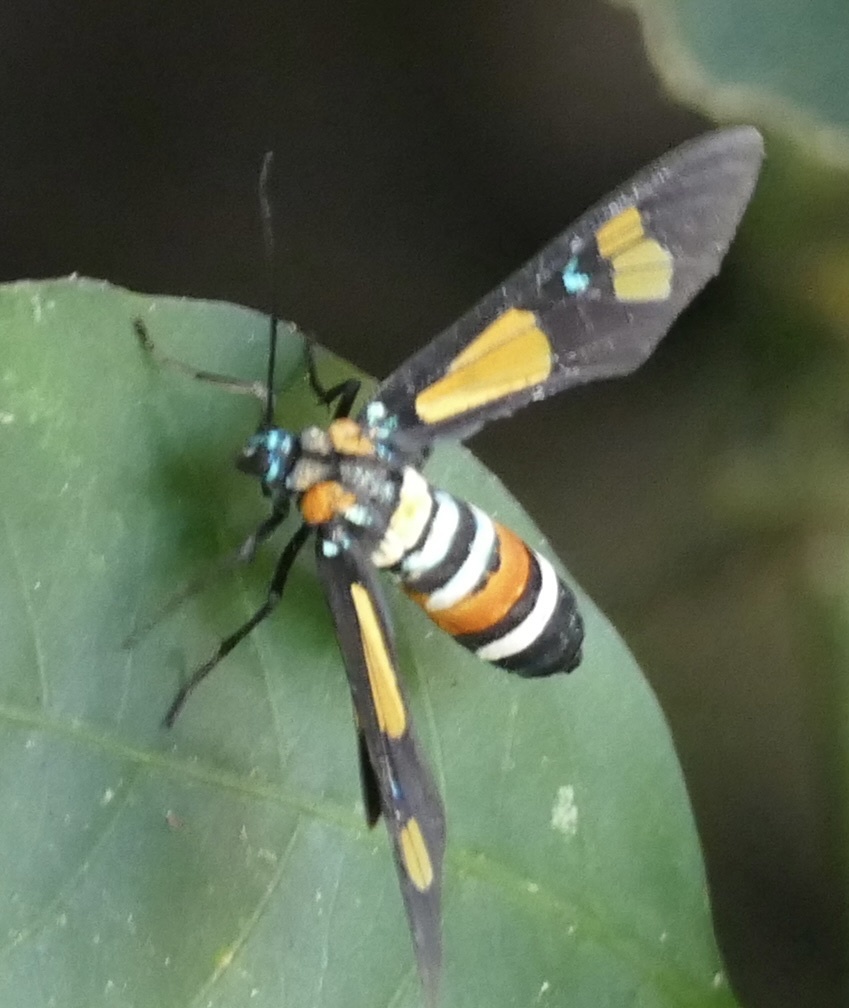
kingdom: Animalia
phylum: Arthropoda
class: Insecta
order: Lepidoptera
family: Erebidae
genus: Euchromia
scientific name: Euchromia lethe
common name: Basker
